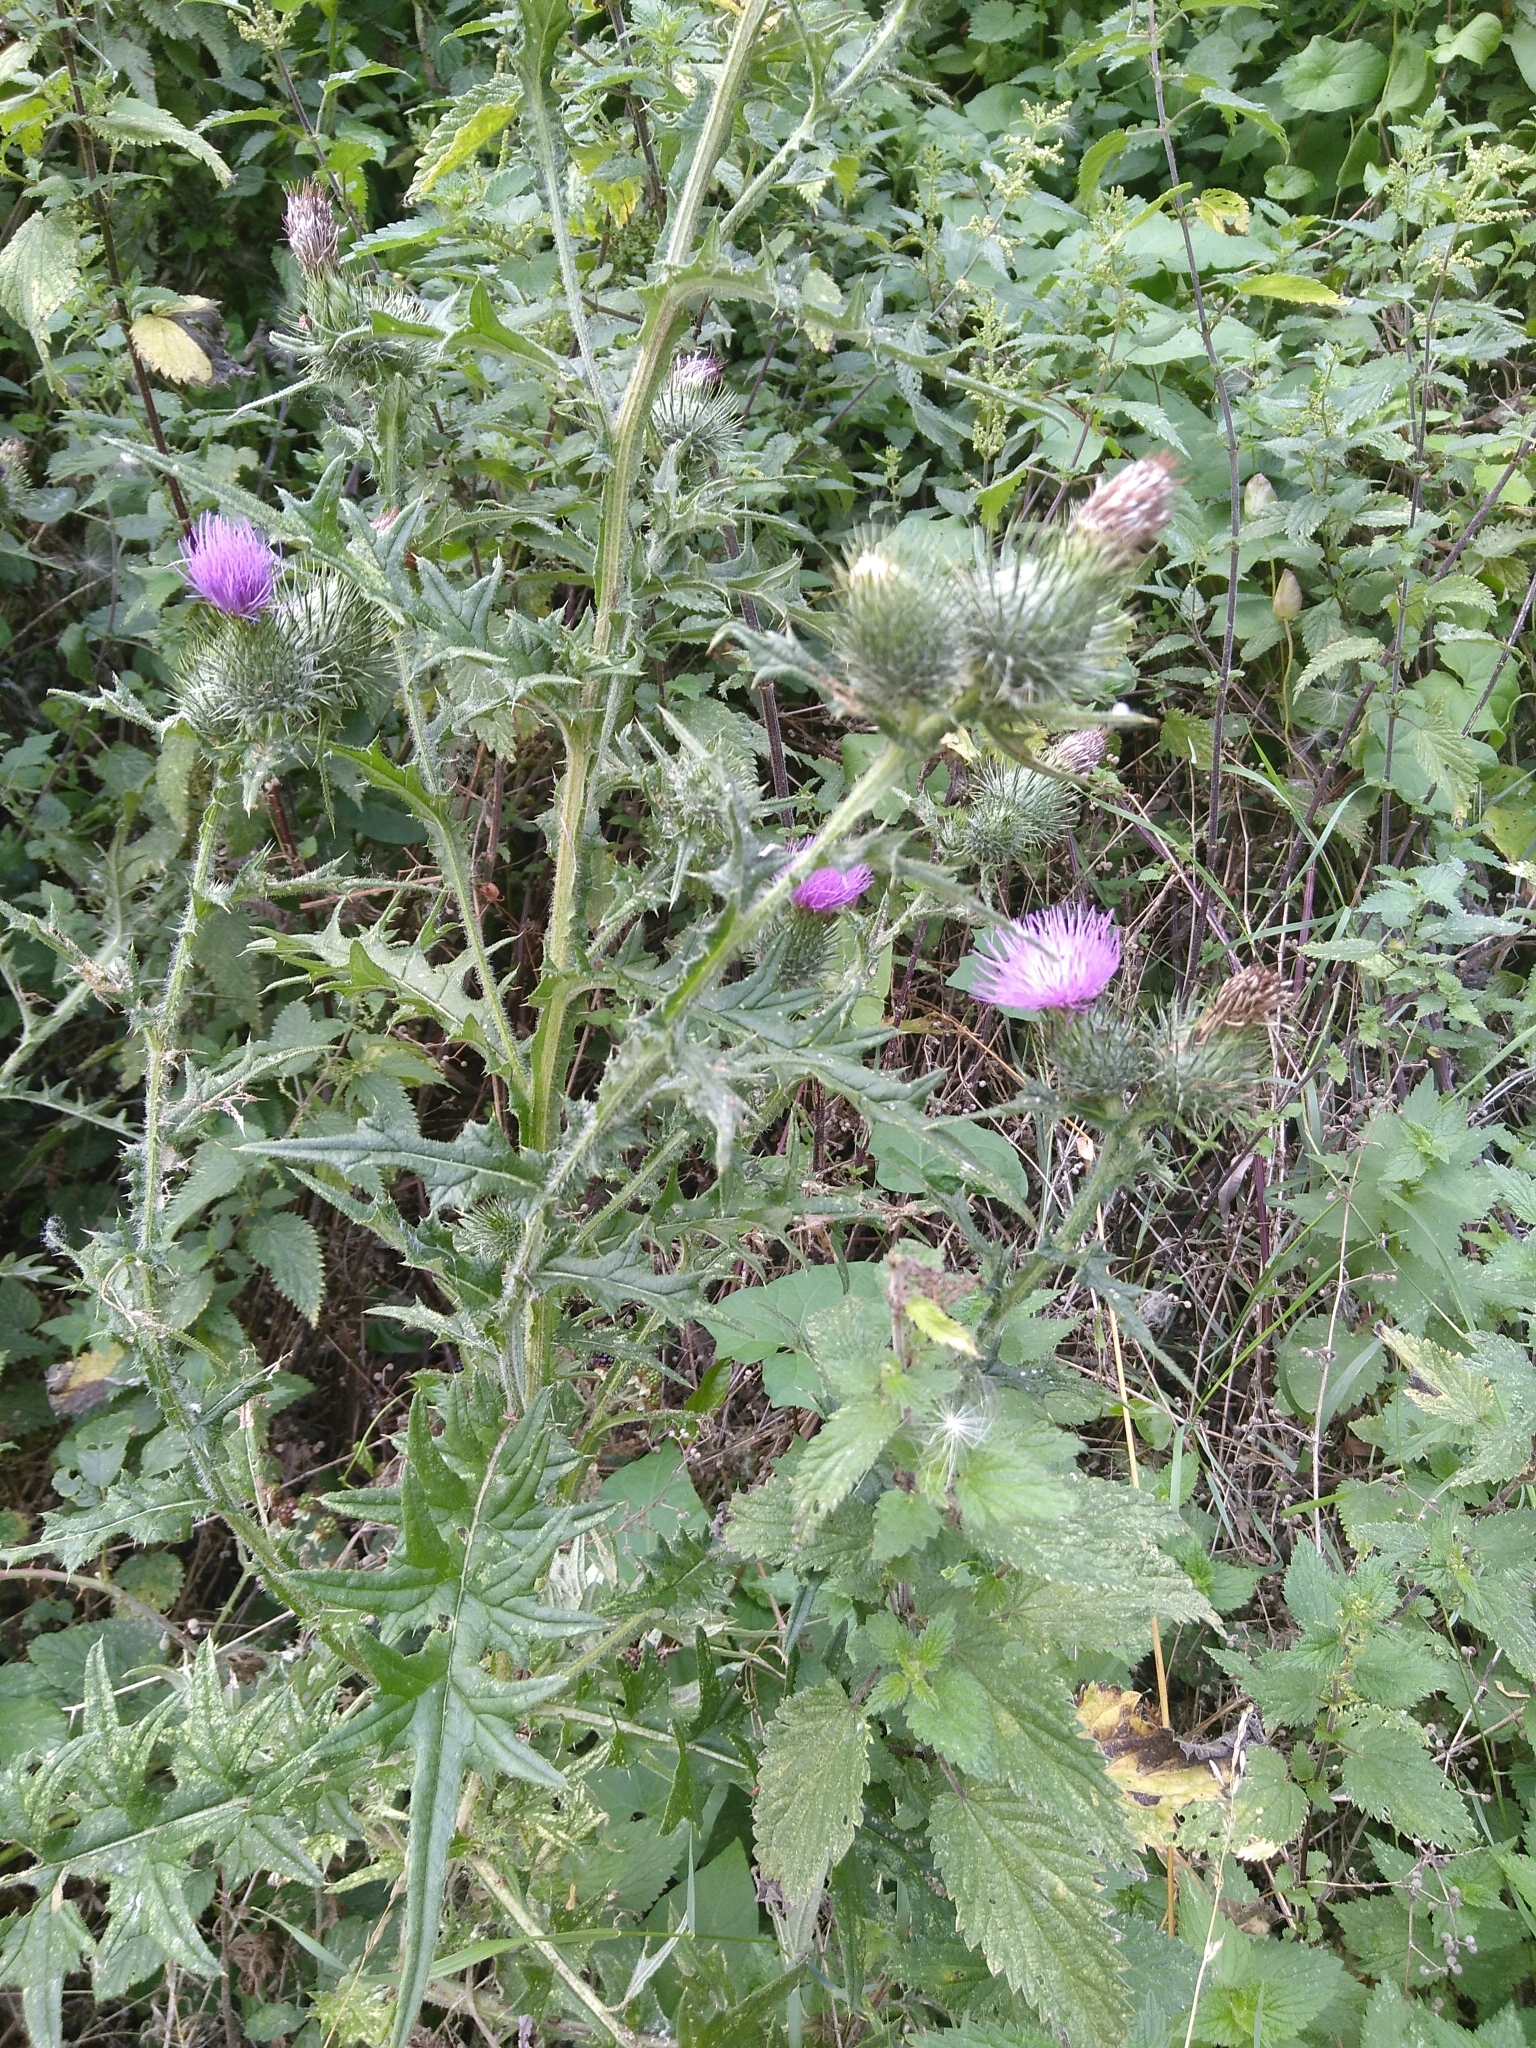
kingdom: Plantae
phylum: Tracheophyta
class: Magnoliopsida
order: Asterales
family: Asteraceae
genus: Cirsium
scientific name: Cirsium vulgare
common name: Bull thistle
